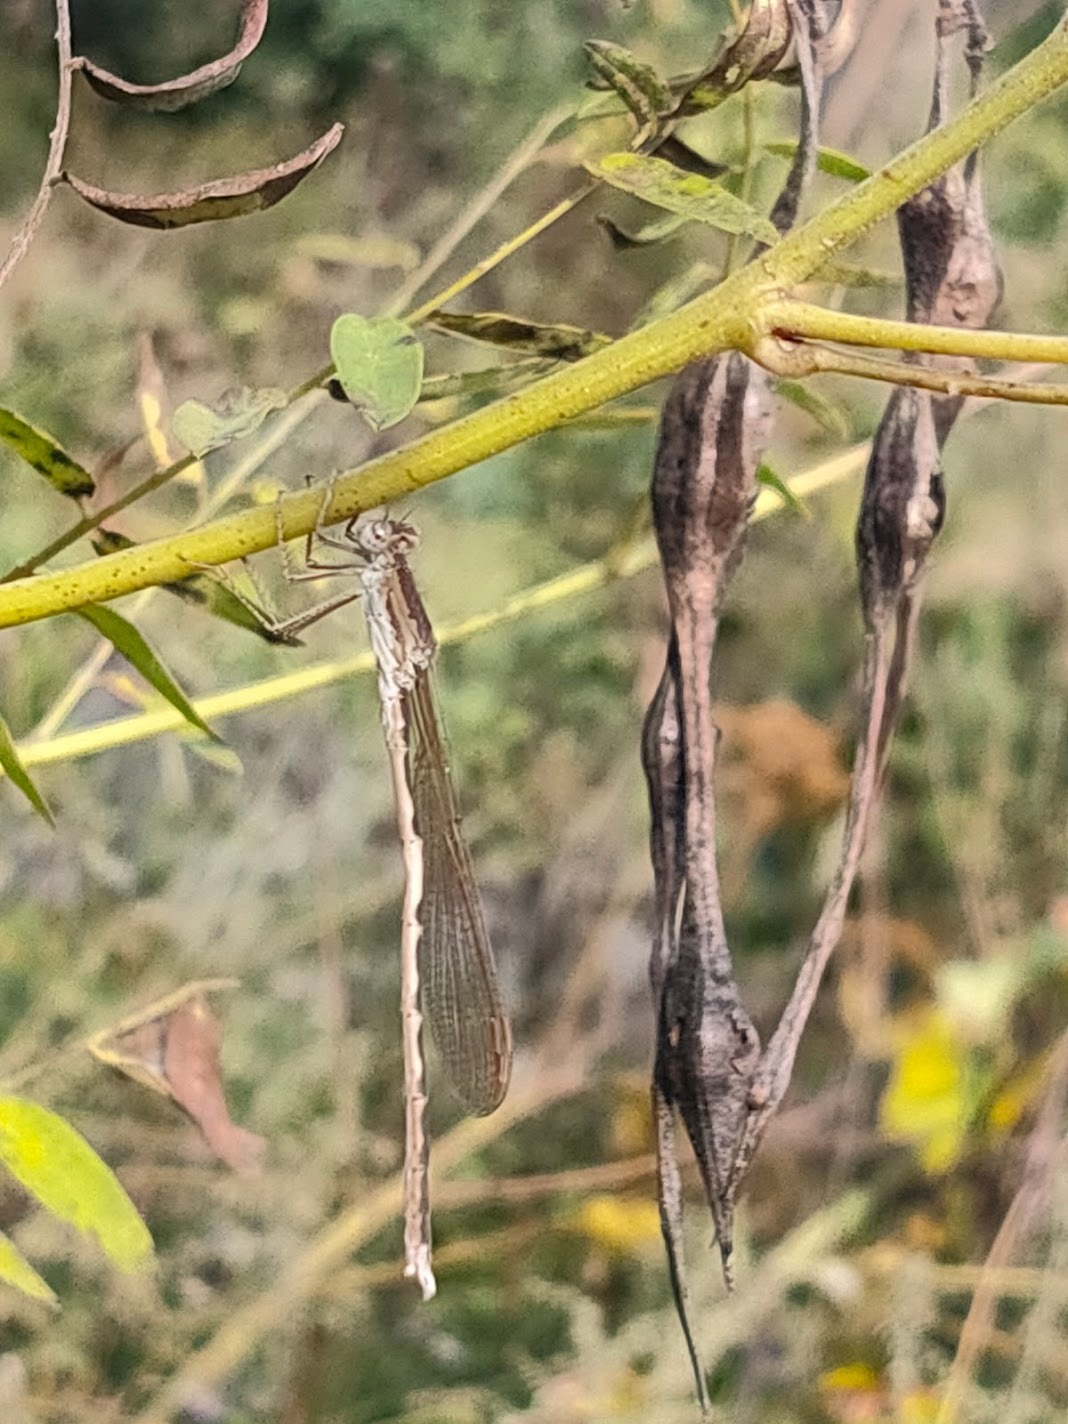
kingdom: Animalia
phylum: Arthropoda
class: Insecta
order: Odonata
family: Lestidae
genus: Sympecma
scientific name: Sympecma paedisca
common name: Siberian winter damsel
